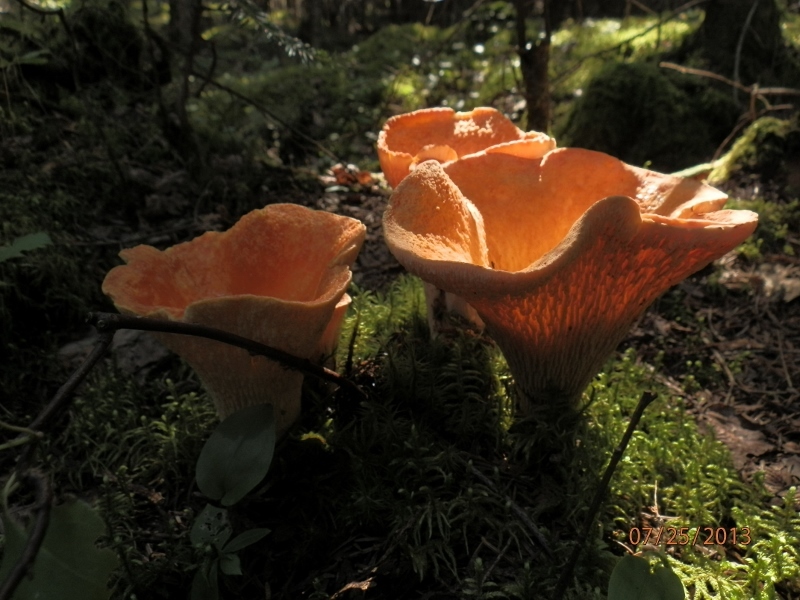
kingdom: Fungi
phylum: Basidiomycota
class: Agaricomycetes
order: Gomphales
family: Gomphaceae
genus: Turbinellus
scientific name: Turbinellus floccosus
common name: Scaly chanterelle
